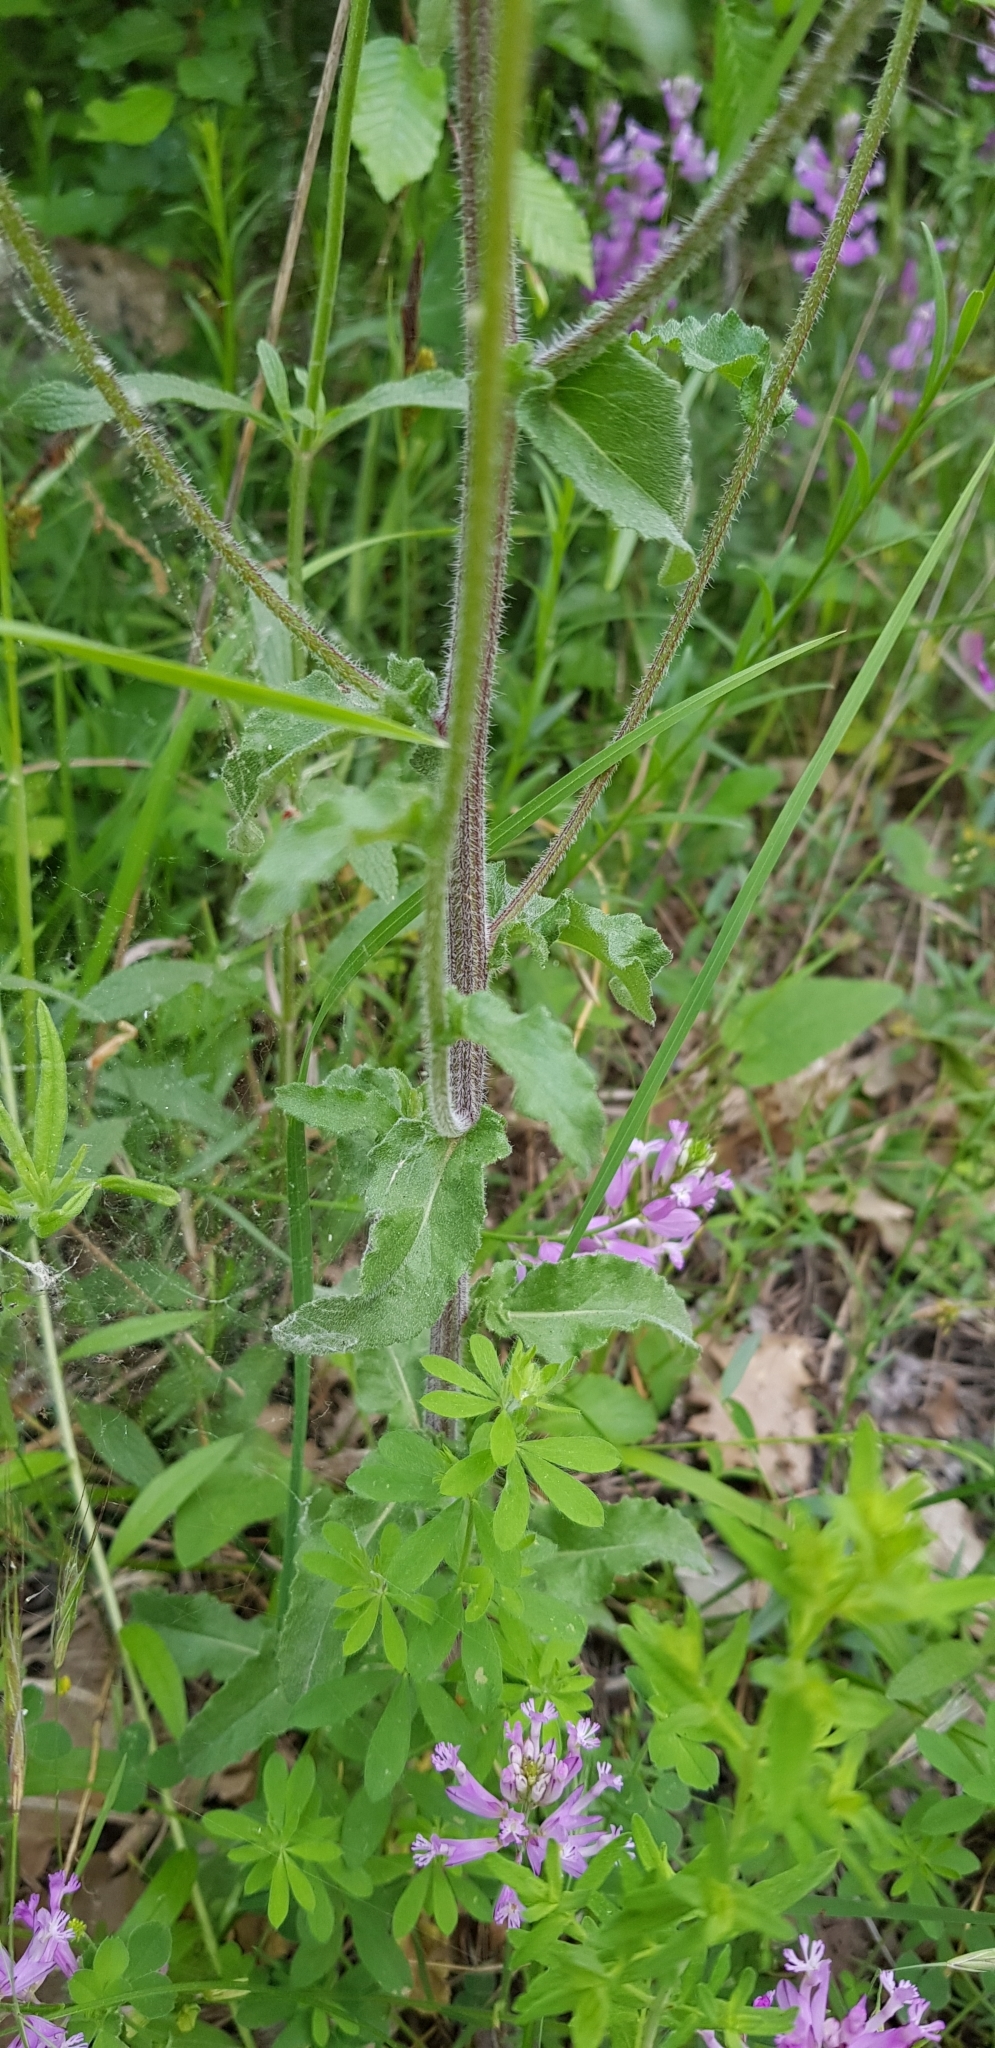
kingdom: Plantae
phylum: Tracheophyta
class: Magnoliopsida
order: Asterales
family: Campanulaceae
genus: Campanula
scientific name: Campanula komarovii
